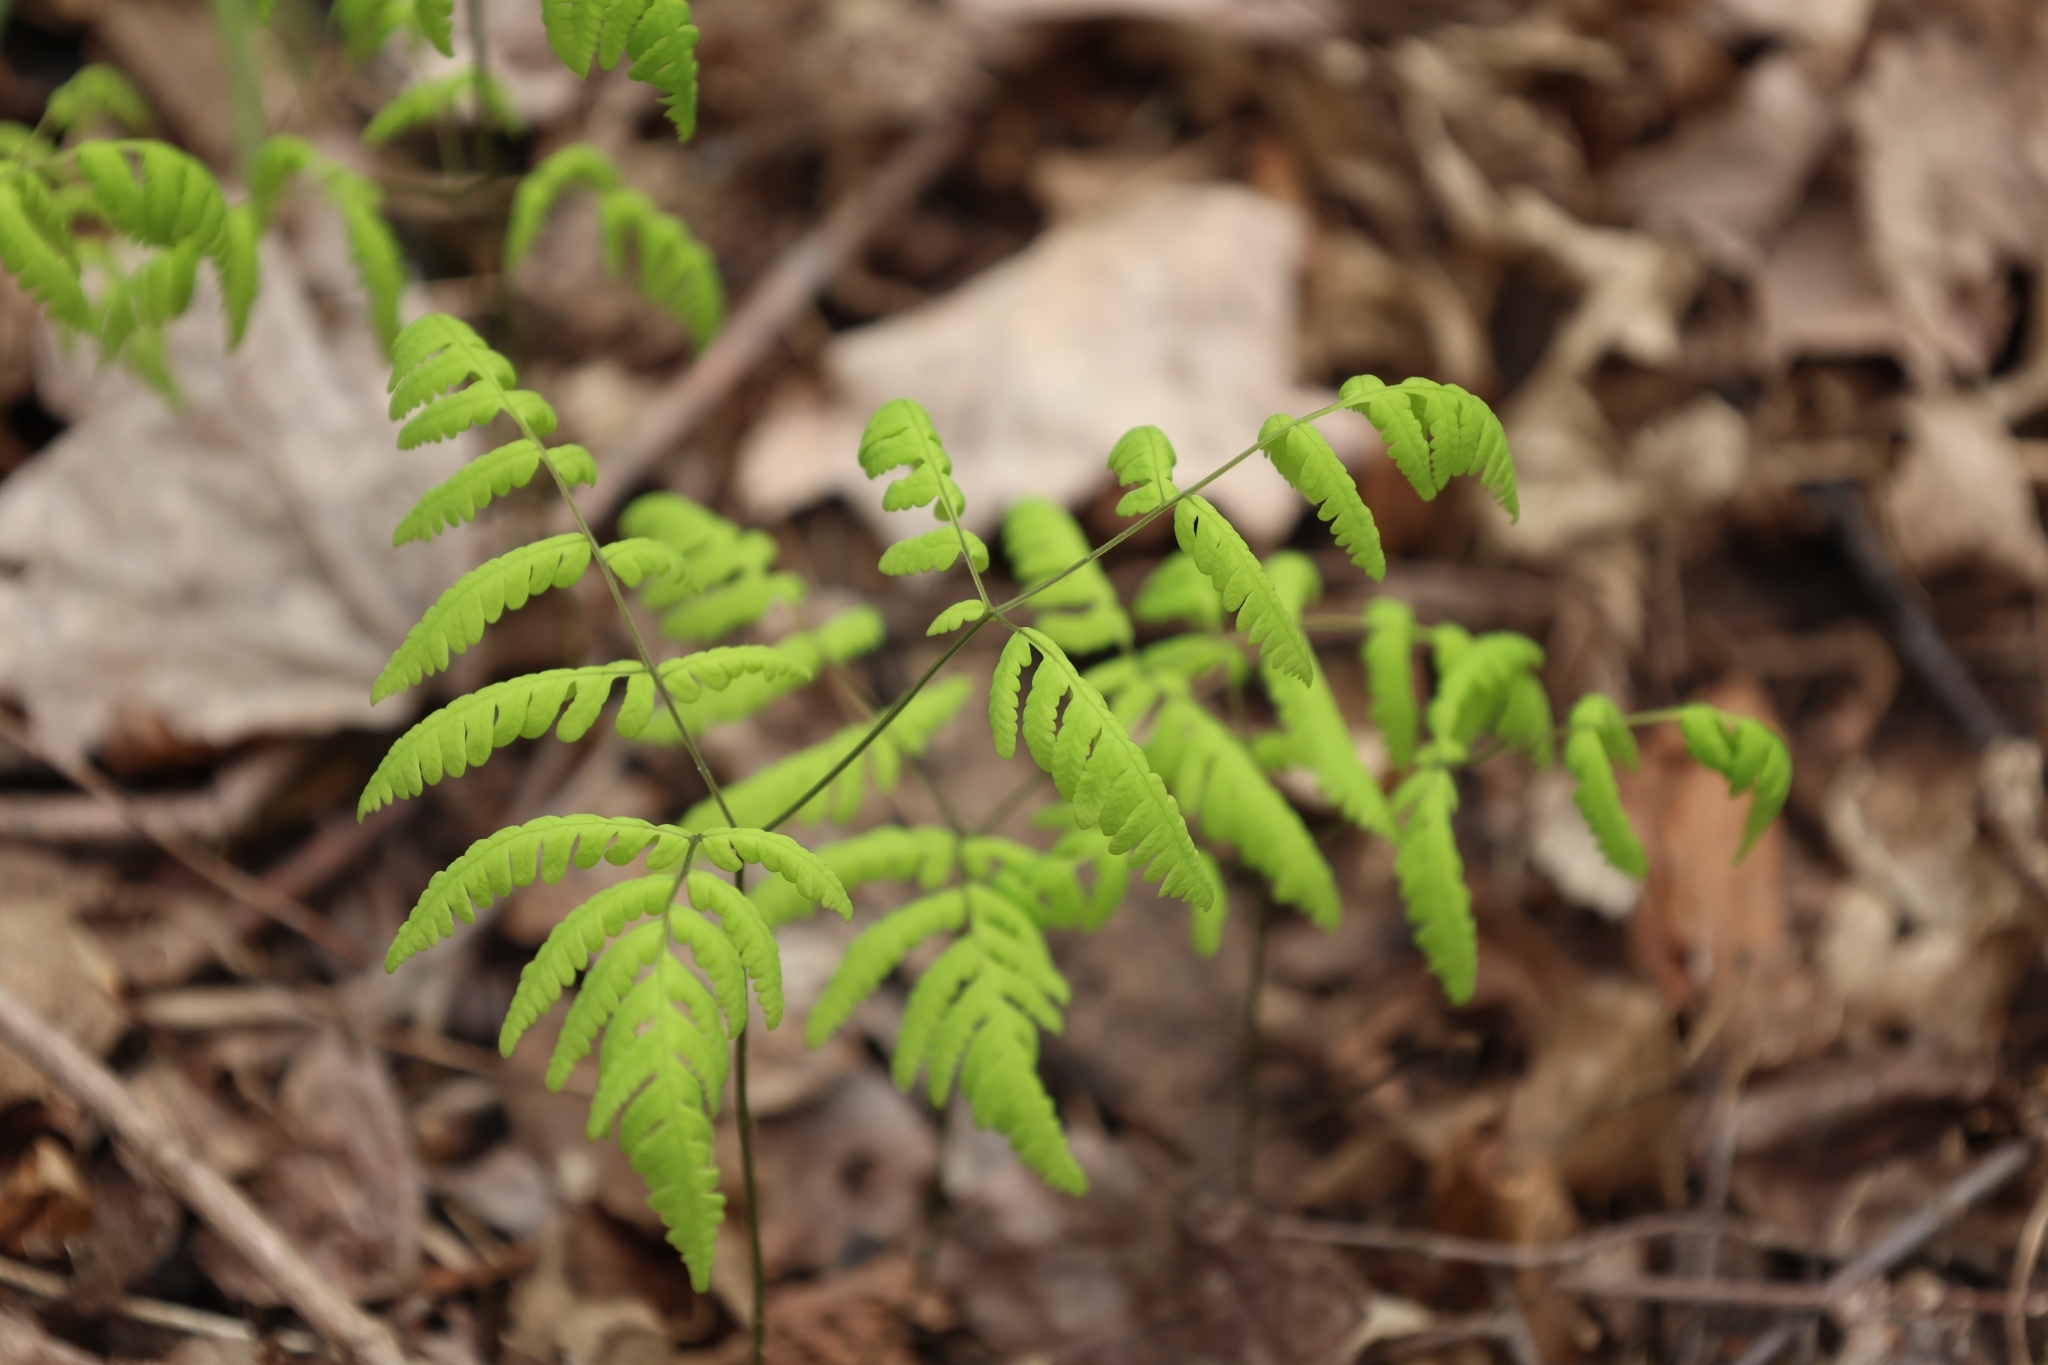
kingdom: Plantae
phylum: Tracheophyta
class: Polypodiopsida
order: Polypodiales
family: Cystopteridaceae
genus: Gymnocarpium
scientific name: Gymnocarpium dryopteris
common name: Oak fern
